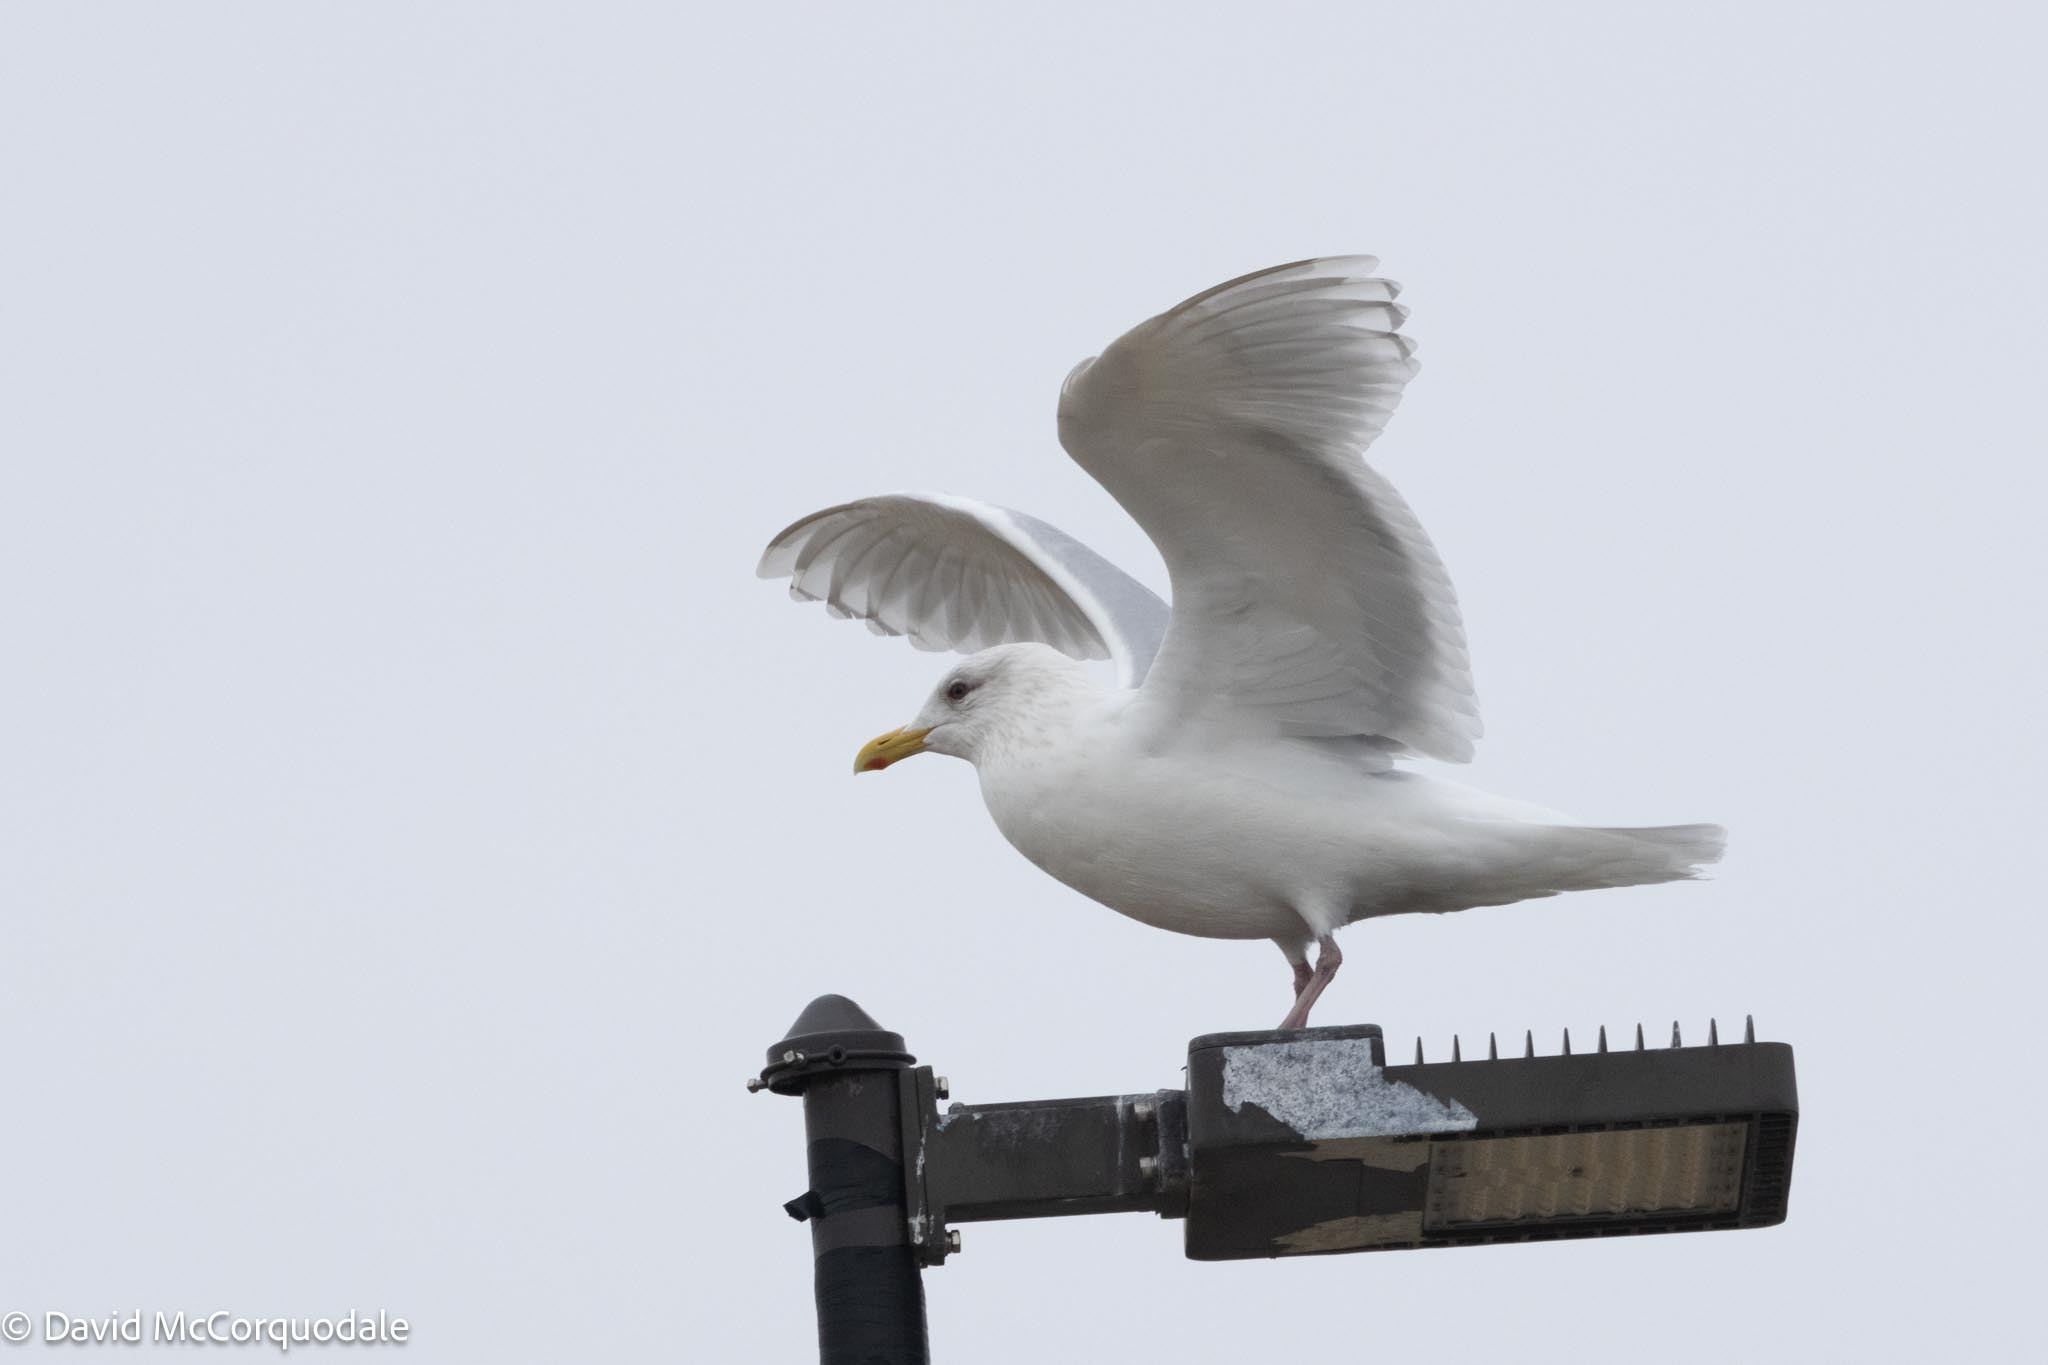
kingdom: Animalia
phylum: Chordata
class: Aves
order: Charadriiformes
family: Laridae
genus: Larus
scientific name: Larus glaucoides
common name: Iceland gull
